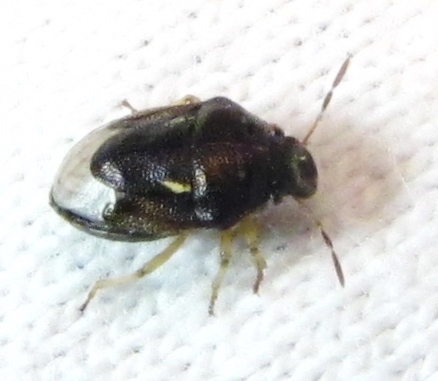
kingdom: Animalia
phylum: Arthropoda
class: Insecta
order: Hemiptera
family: Pentatomidae
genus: Neottiglossa
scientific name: Neottiglossa cavifrons
